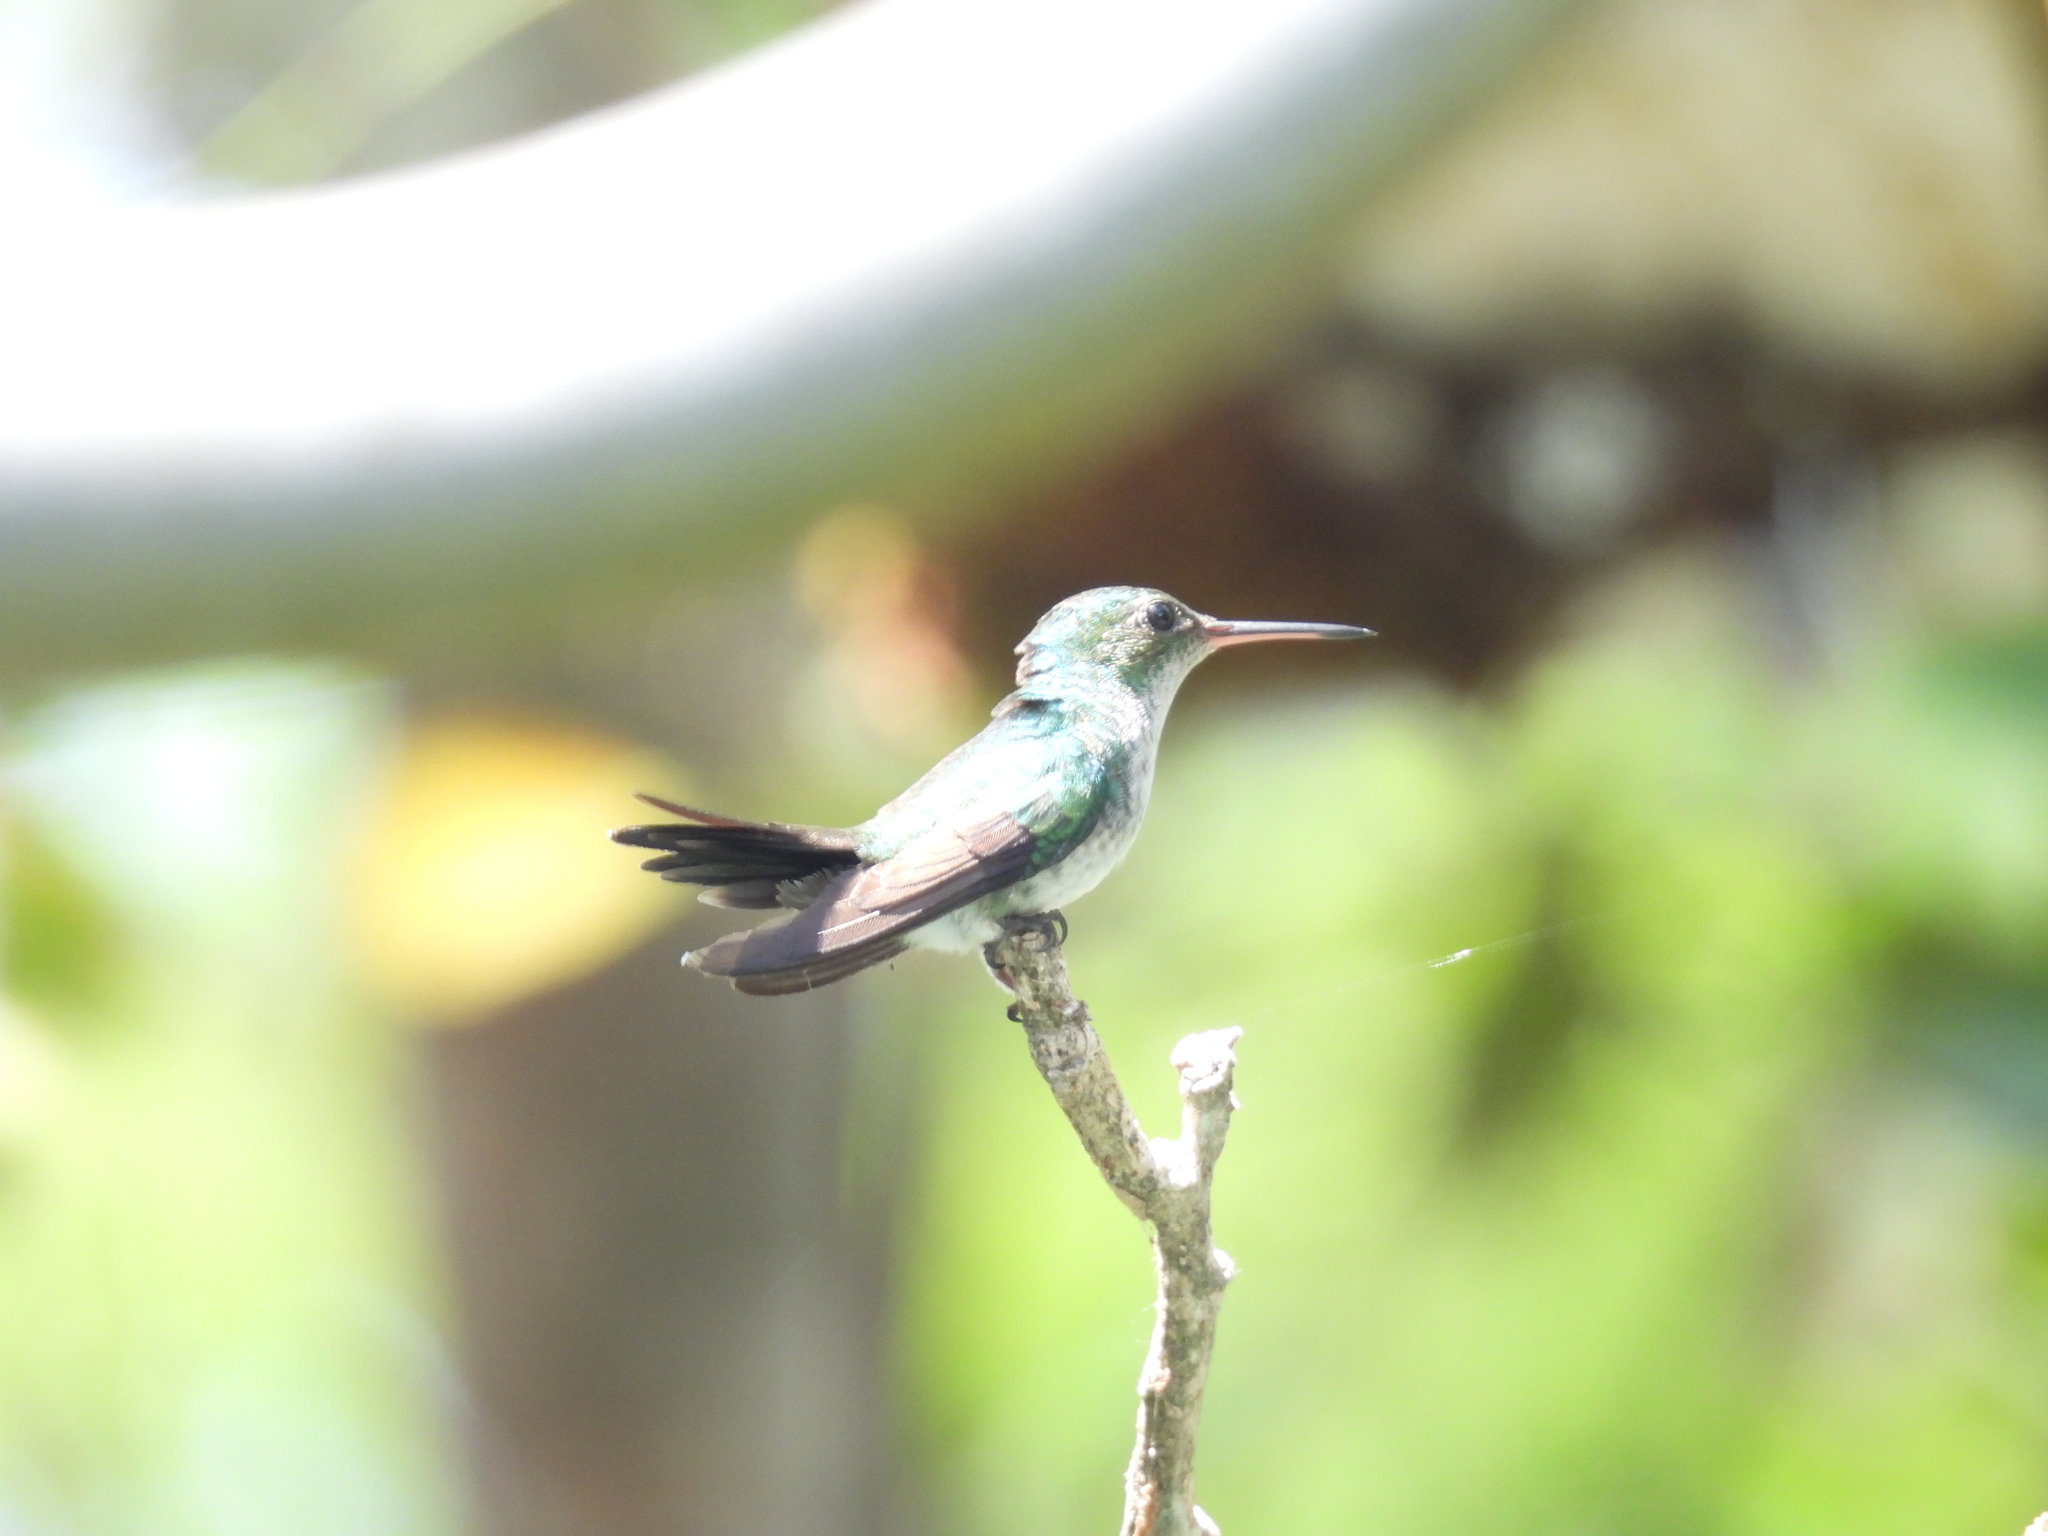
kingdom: Animalia
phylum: Chordata
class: Aves
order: Apodiformes
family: Trochilidae
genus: Chrysuronia
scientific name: Chrysuronia coeruleogularis
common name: Sapphire-throated hummingbird
